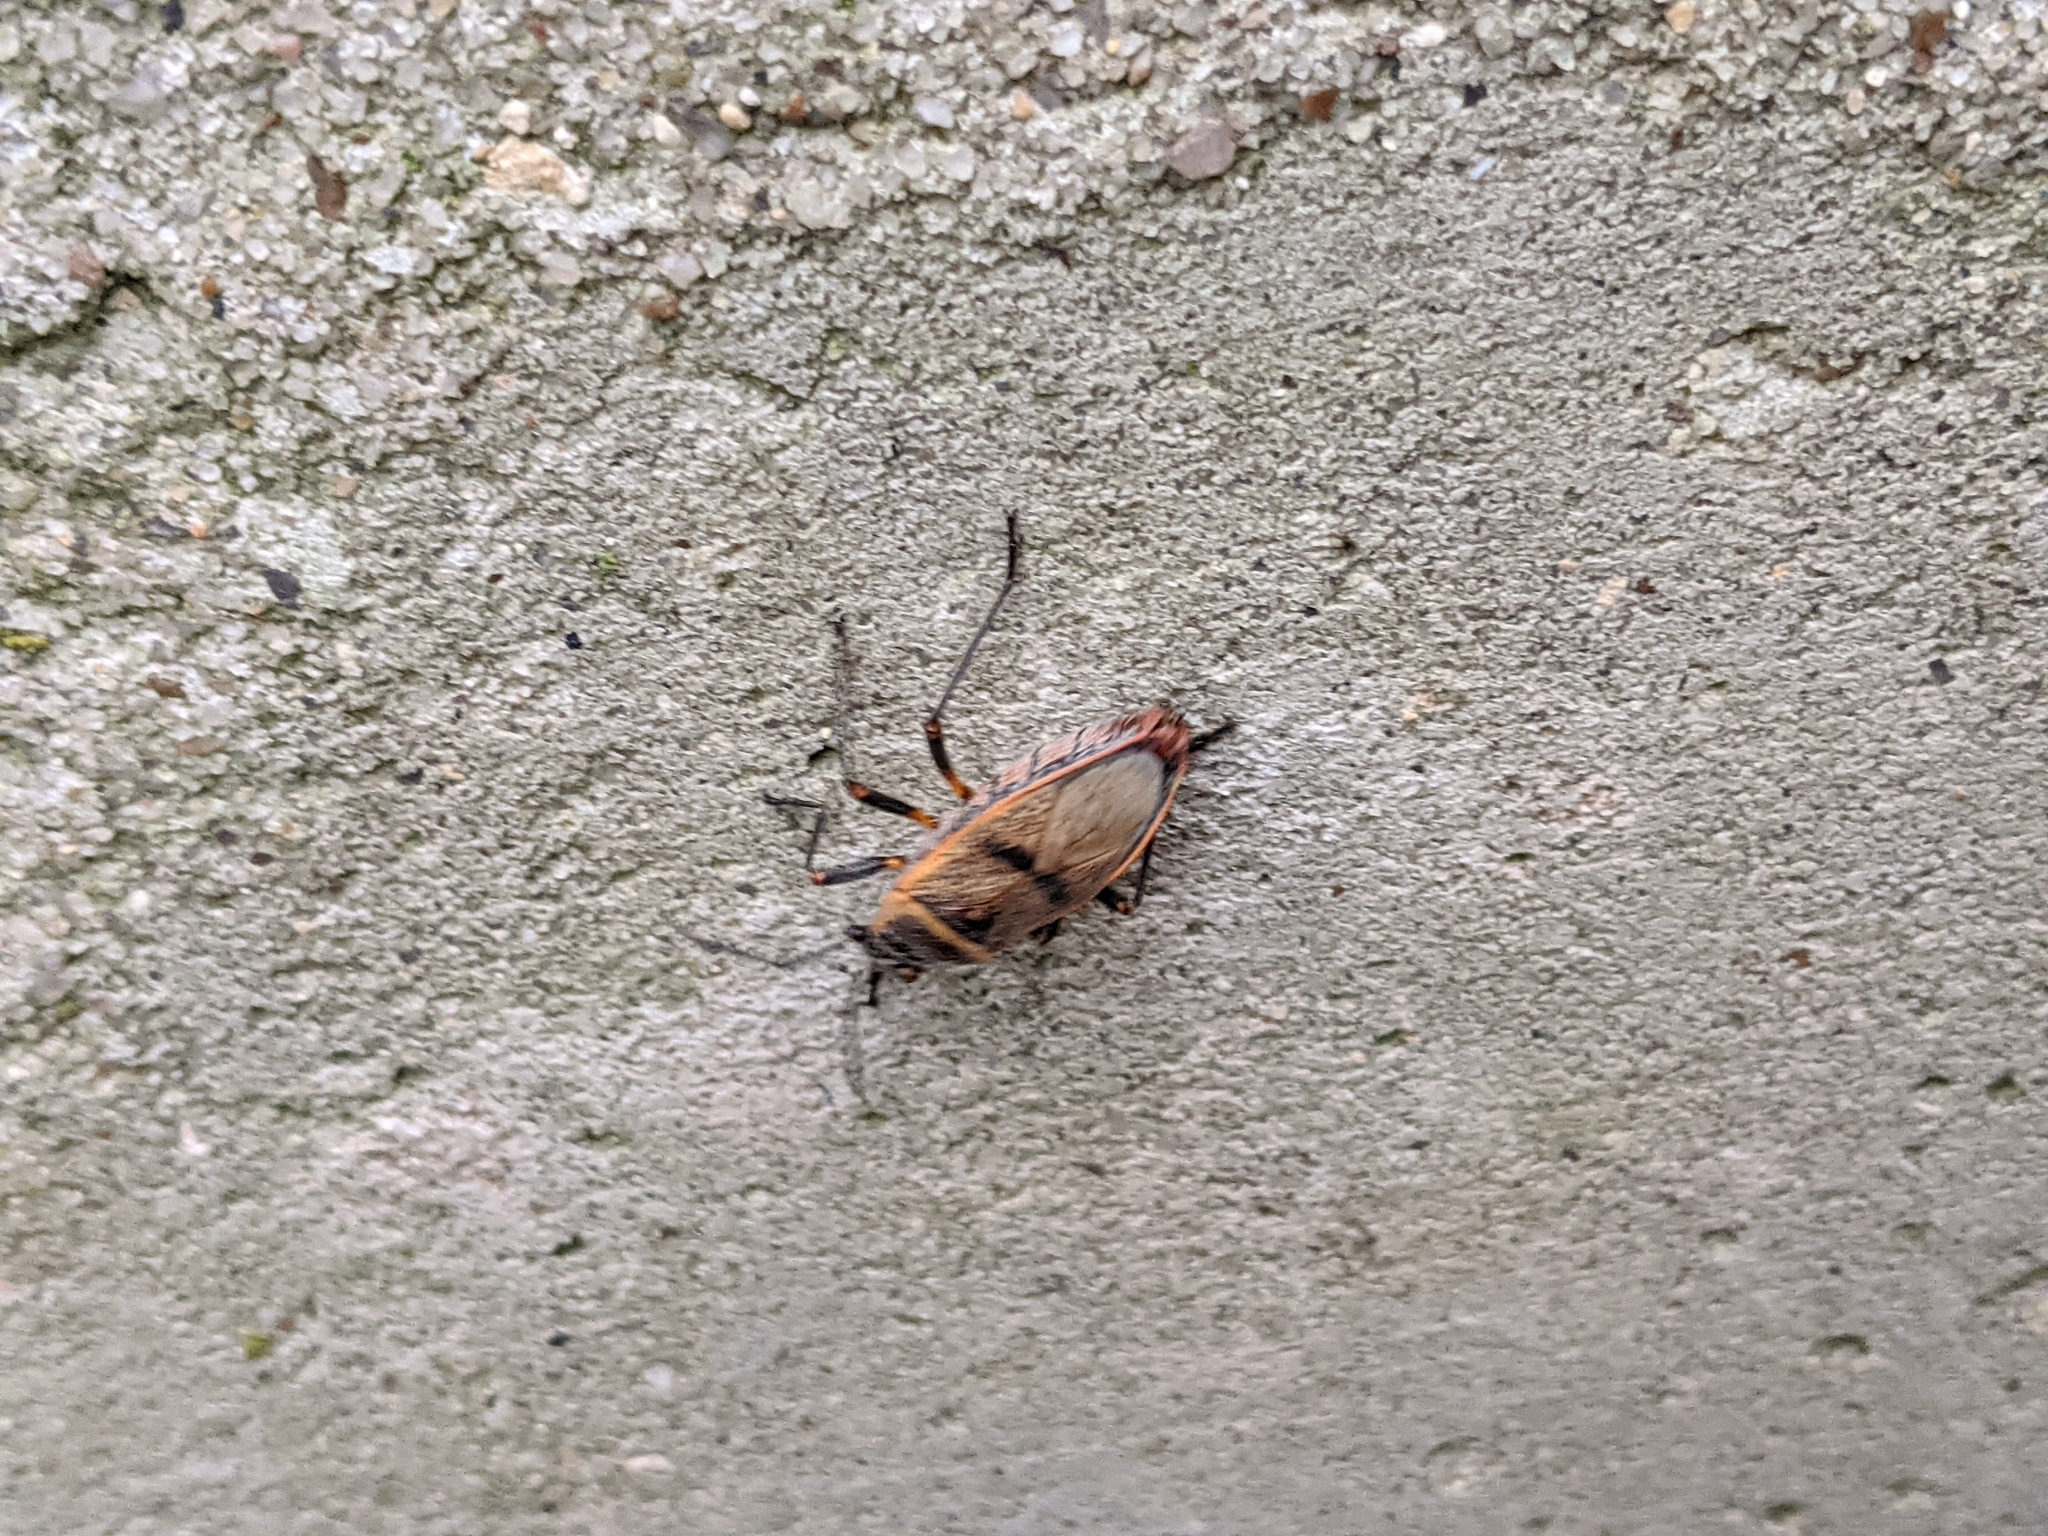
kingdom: Animalia
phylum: Arthropoda
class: Insecta
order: Hemiptera
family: Largidae
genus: Largus
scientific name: Largus maculatus
